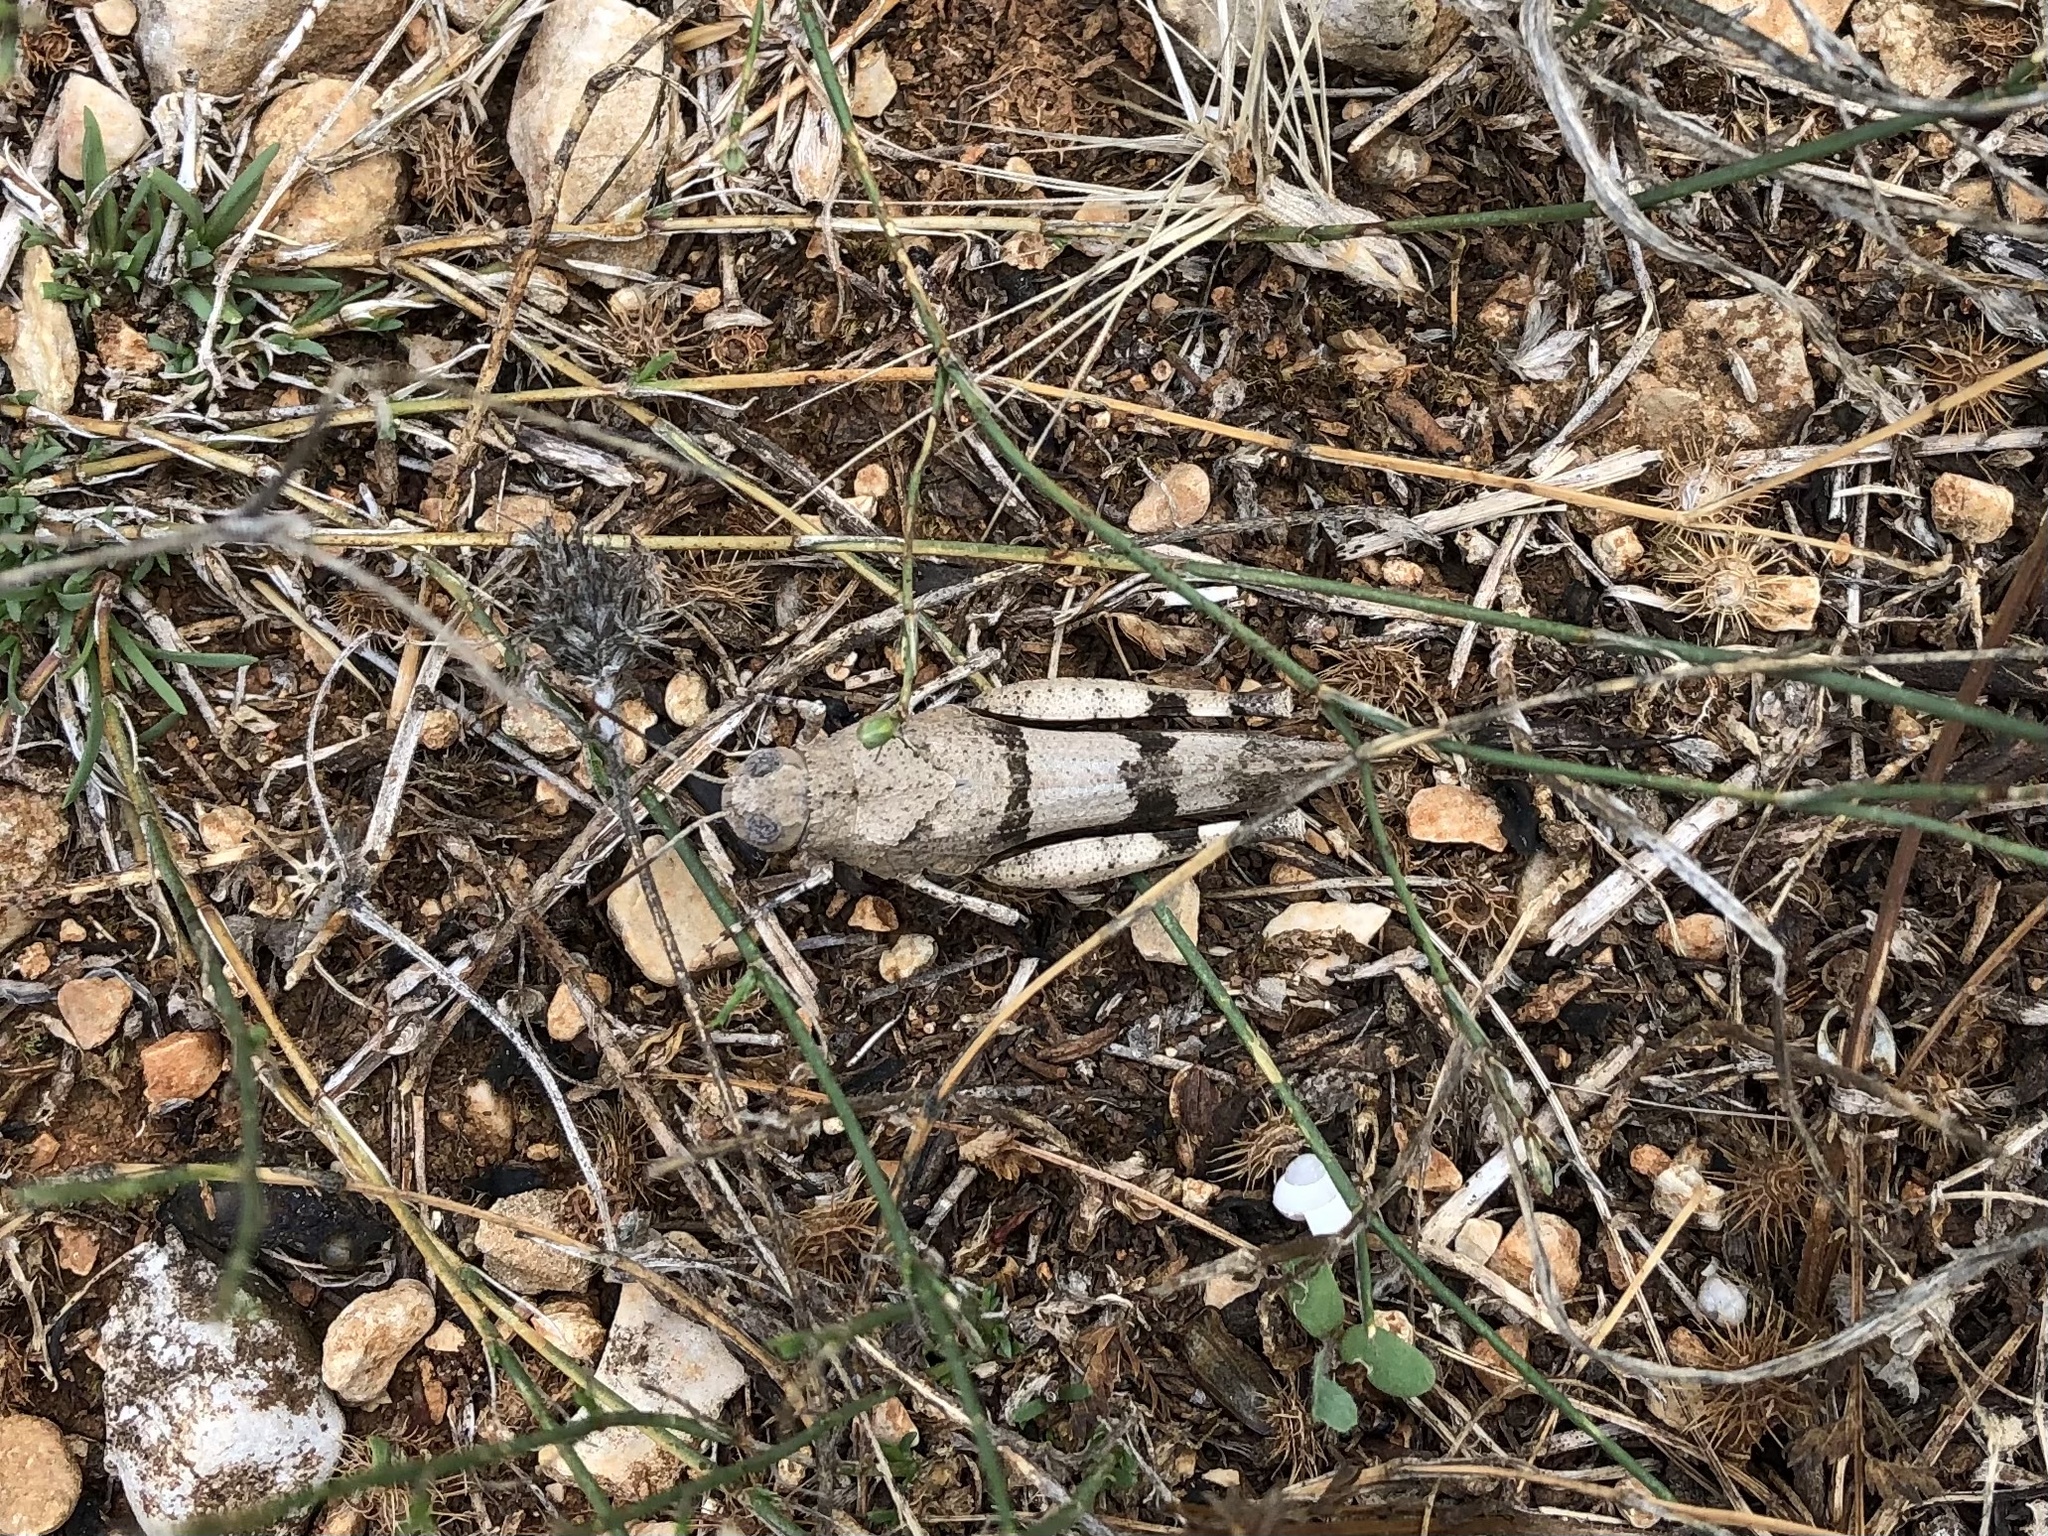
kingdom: Animalia
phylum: Arthropoda
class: Insecta
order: Orthoptera
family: Acrididae
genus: Oedipoda
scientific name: Oedipoda caerulescens
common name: Blue-winged grasshopper
